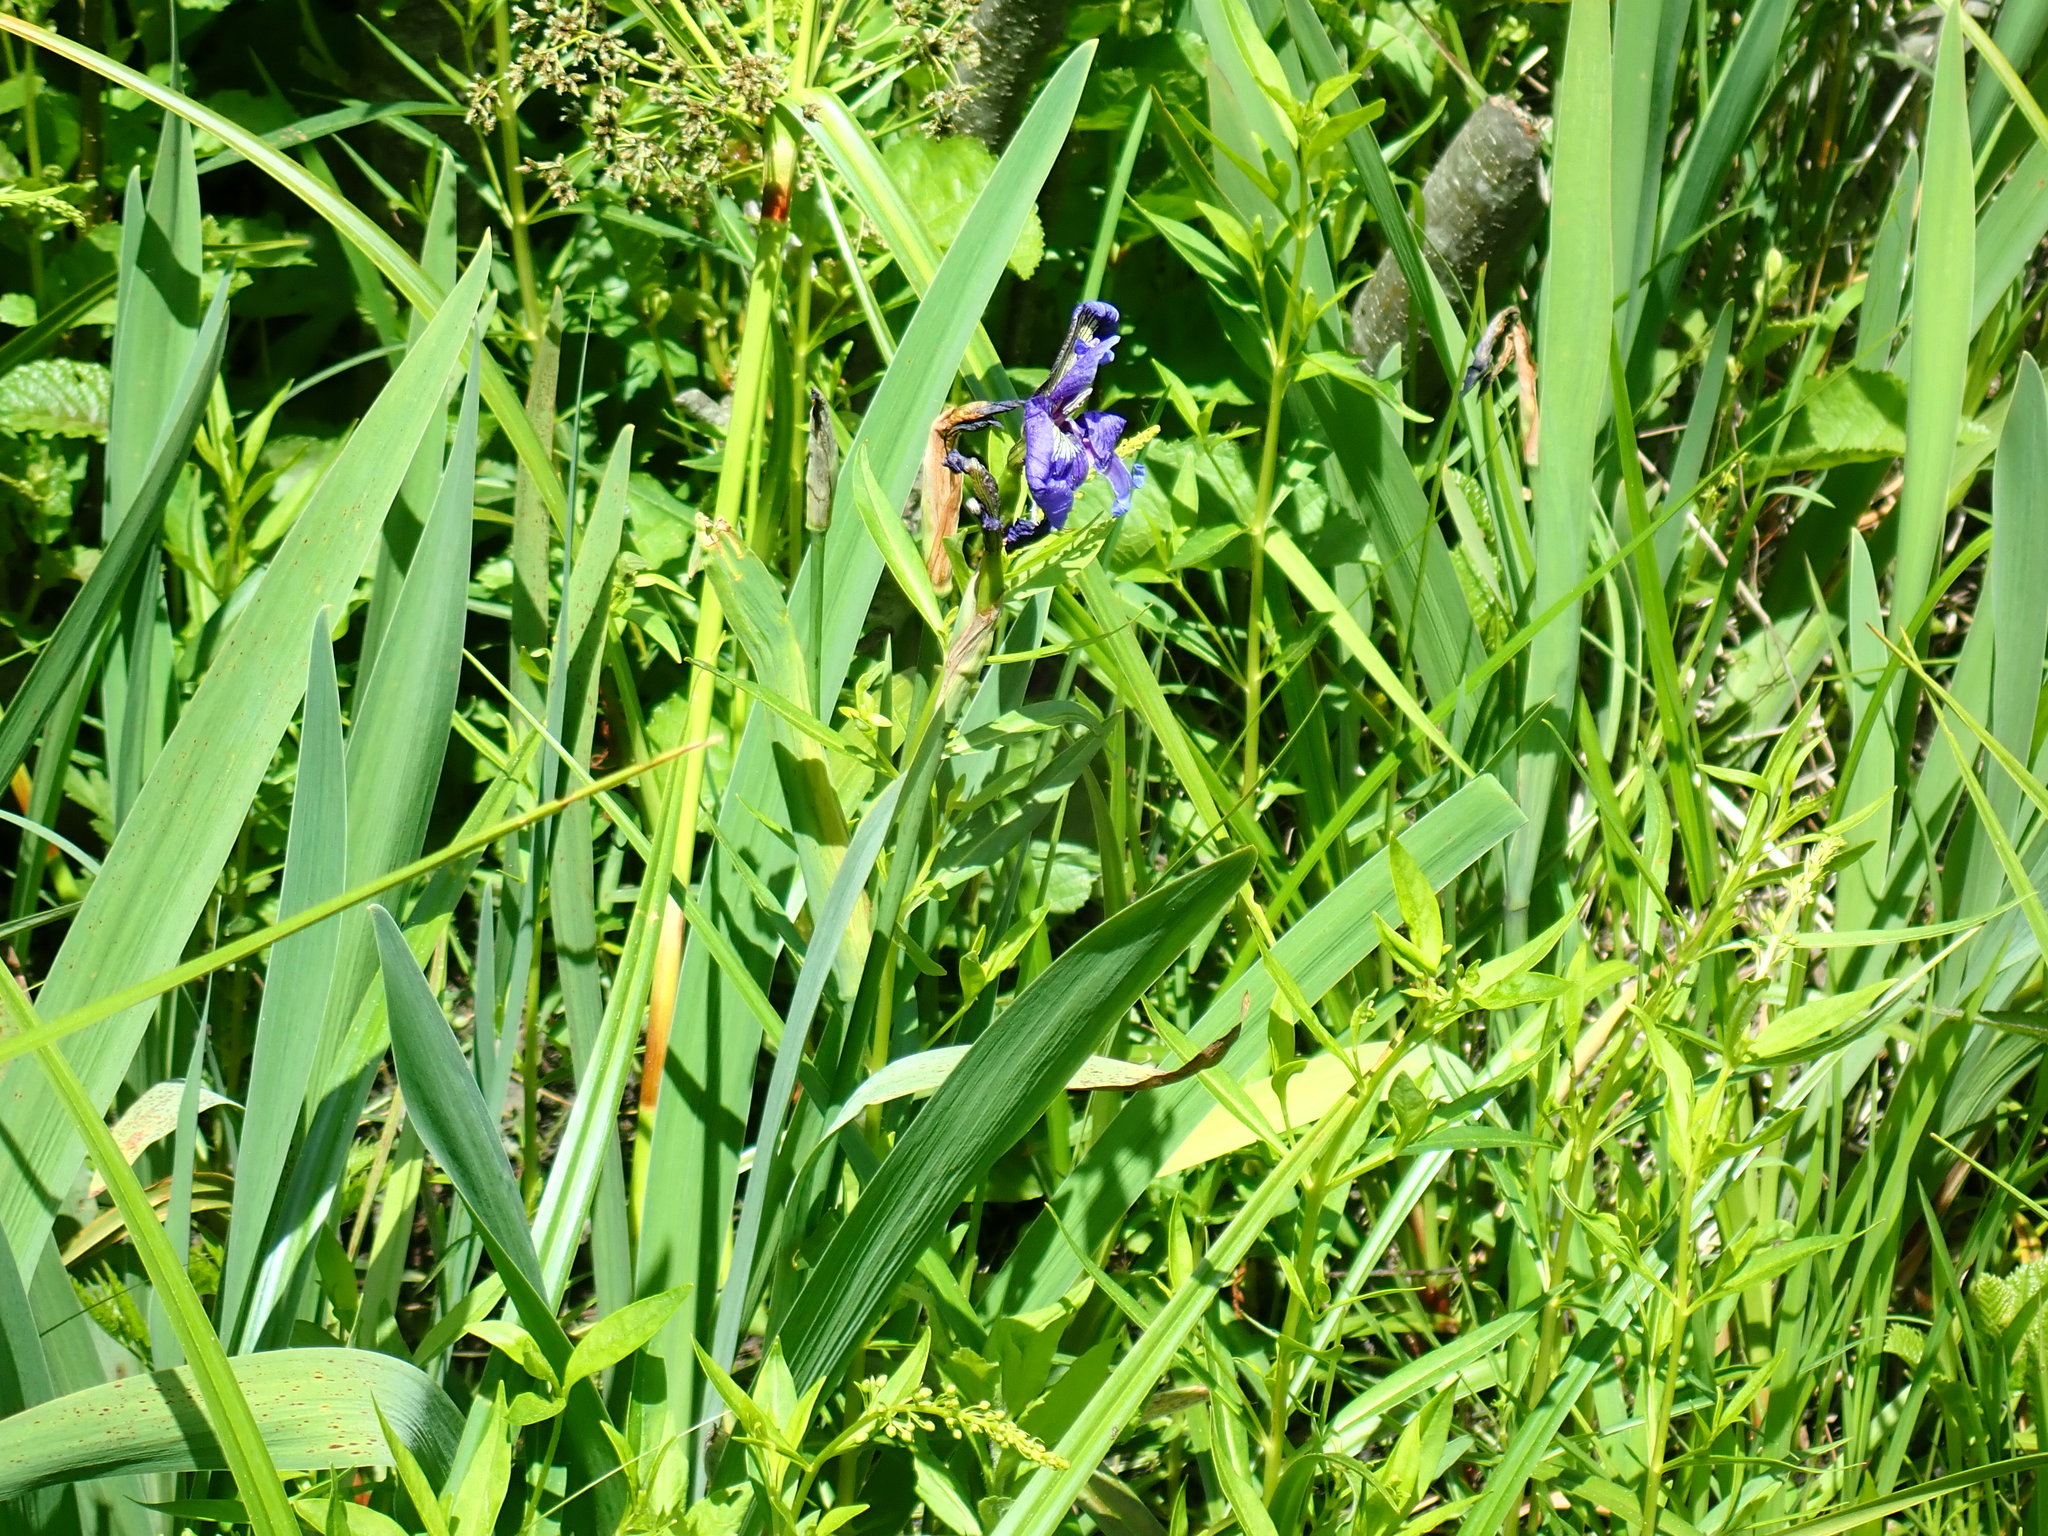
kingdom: Plantae
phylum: Tracheophyta
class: Liliopsida
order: Asparagales
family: Iridaceae
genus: Iris
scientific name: Iris versicolor
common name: Purple iris
